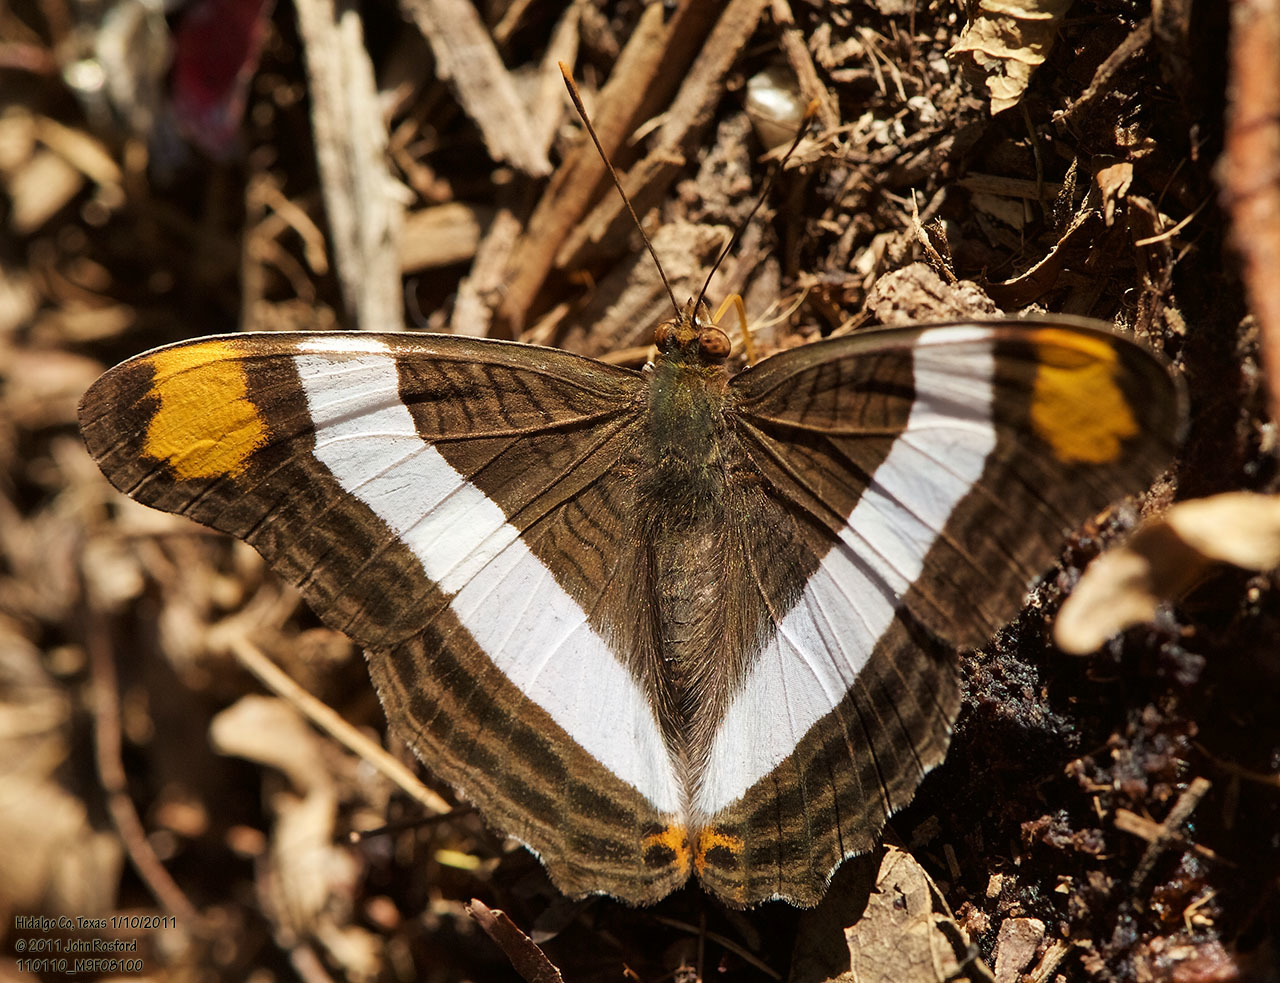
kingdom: Animalia
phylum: Arthropoda
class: Insecta
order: Lepidoptera
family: Nymphalidae
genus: Limenitis
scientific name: Limenitis fessonia
